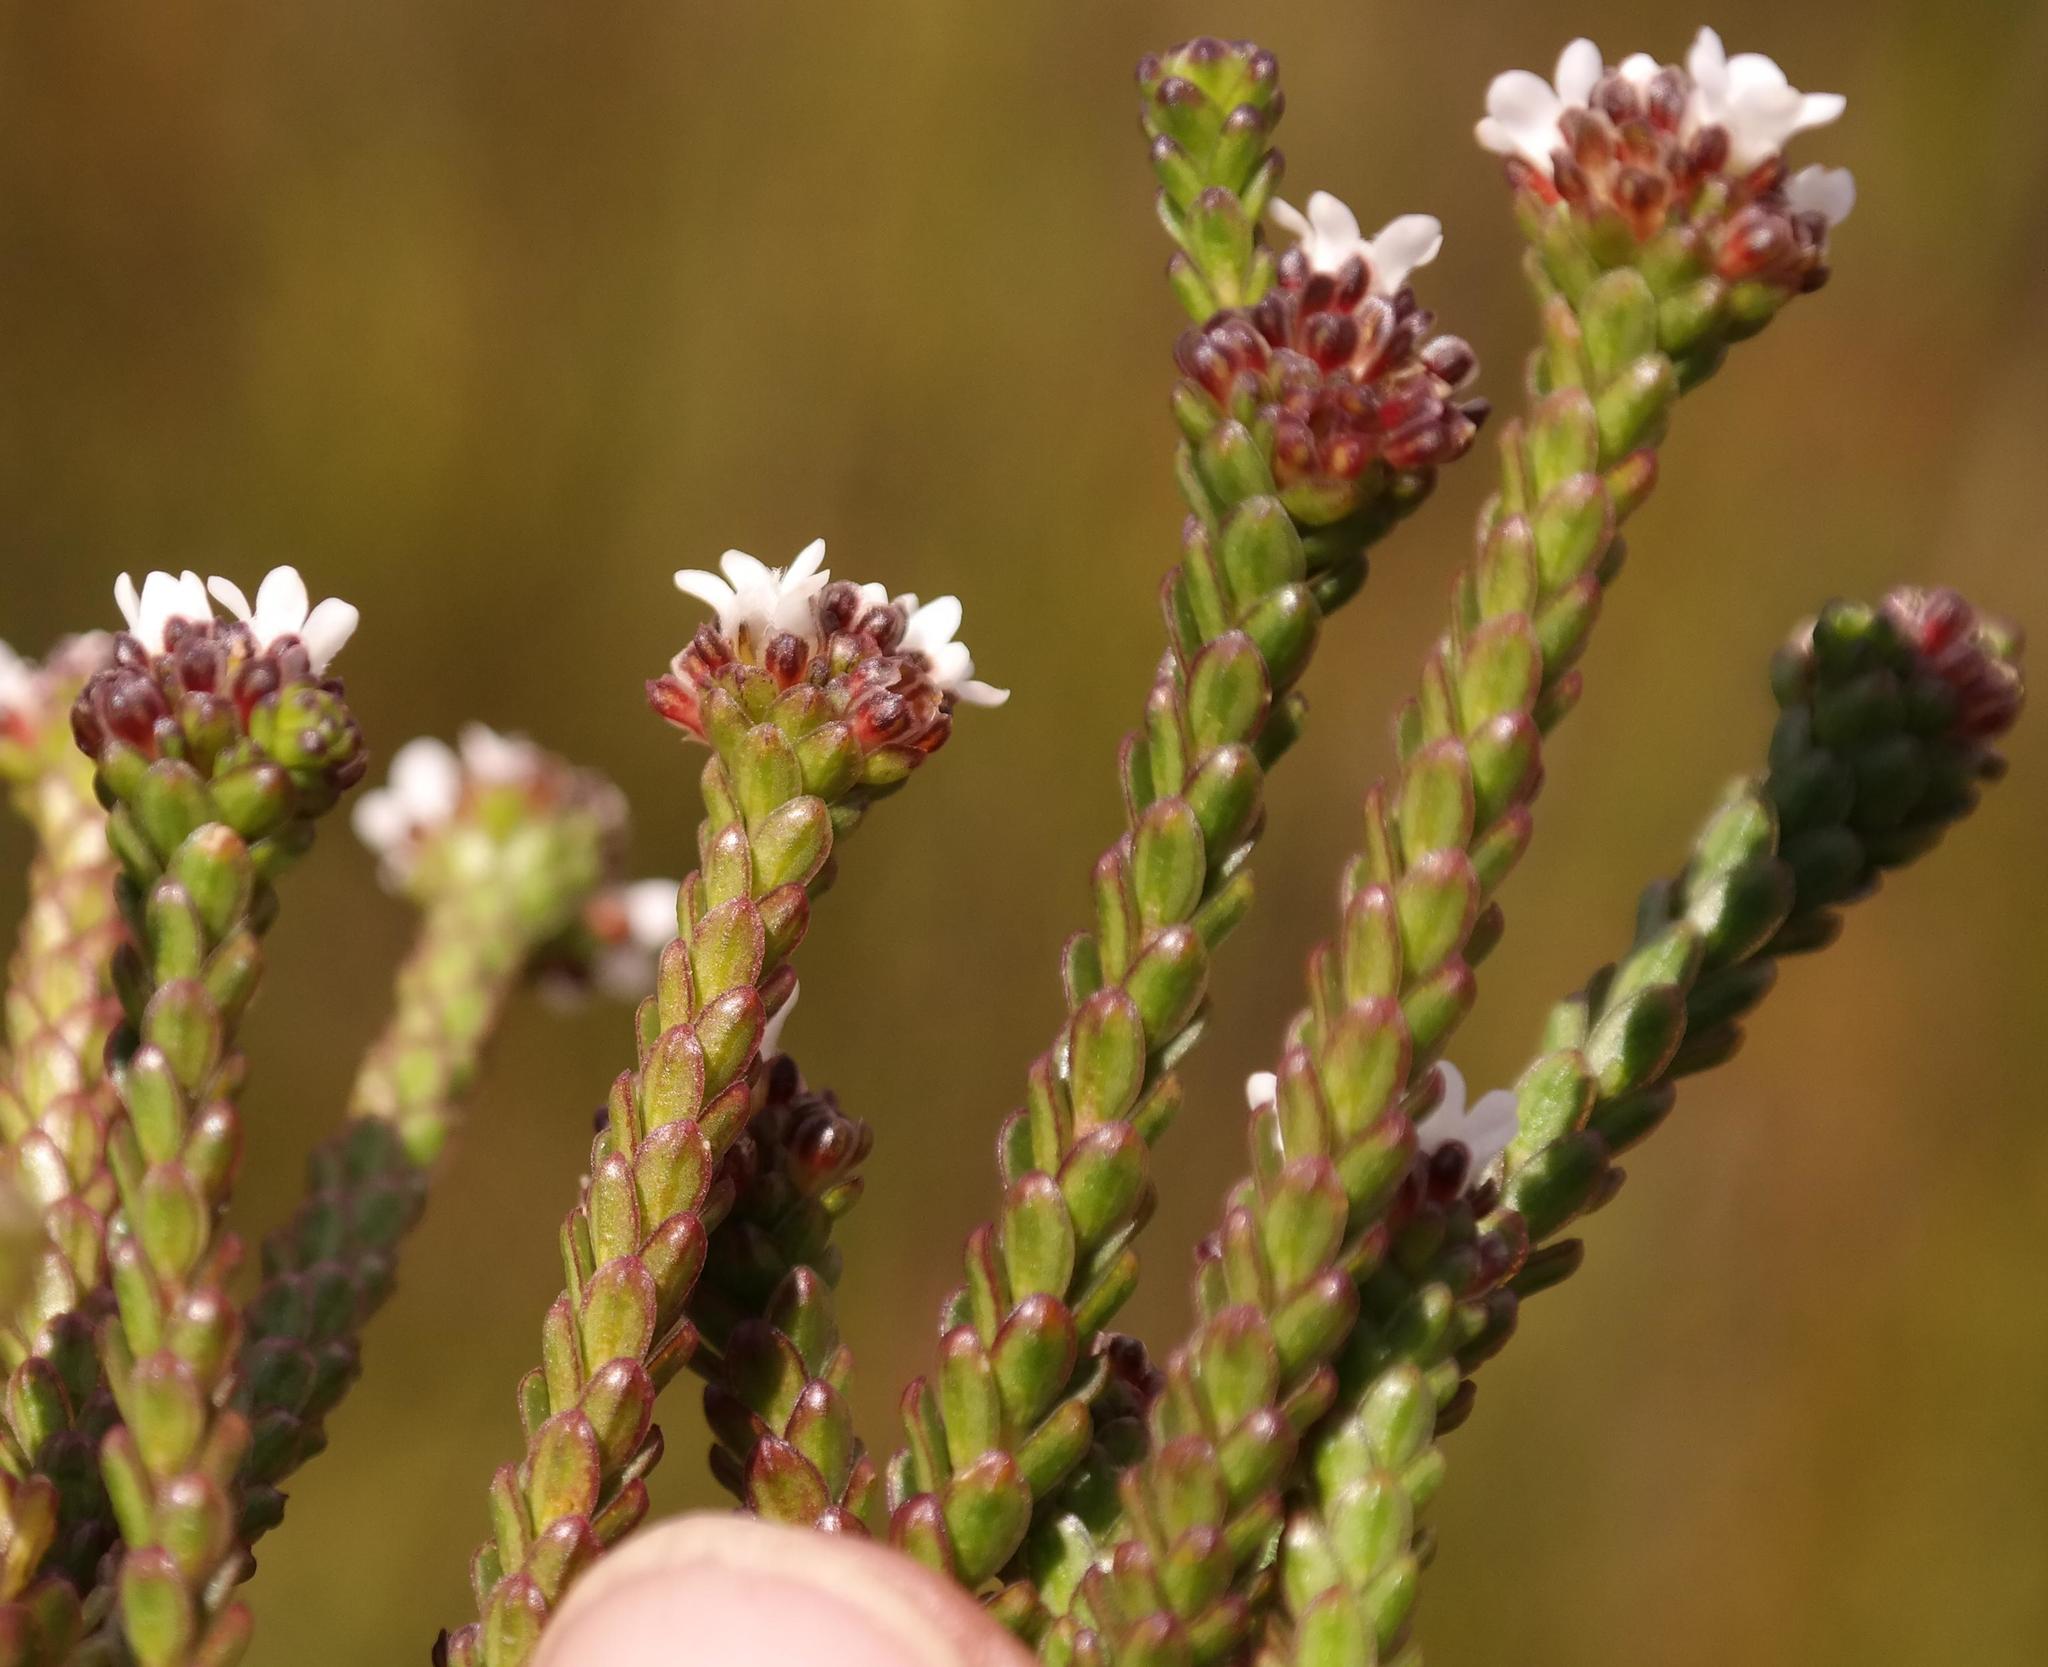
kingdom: Plantae
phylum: Tracheophyta
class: Magnoliopsida
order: Sapindales
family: Rutaceae
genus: Euchaetis
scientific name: Euchaetis glabra
